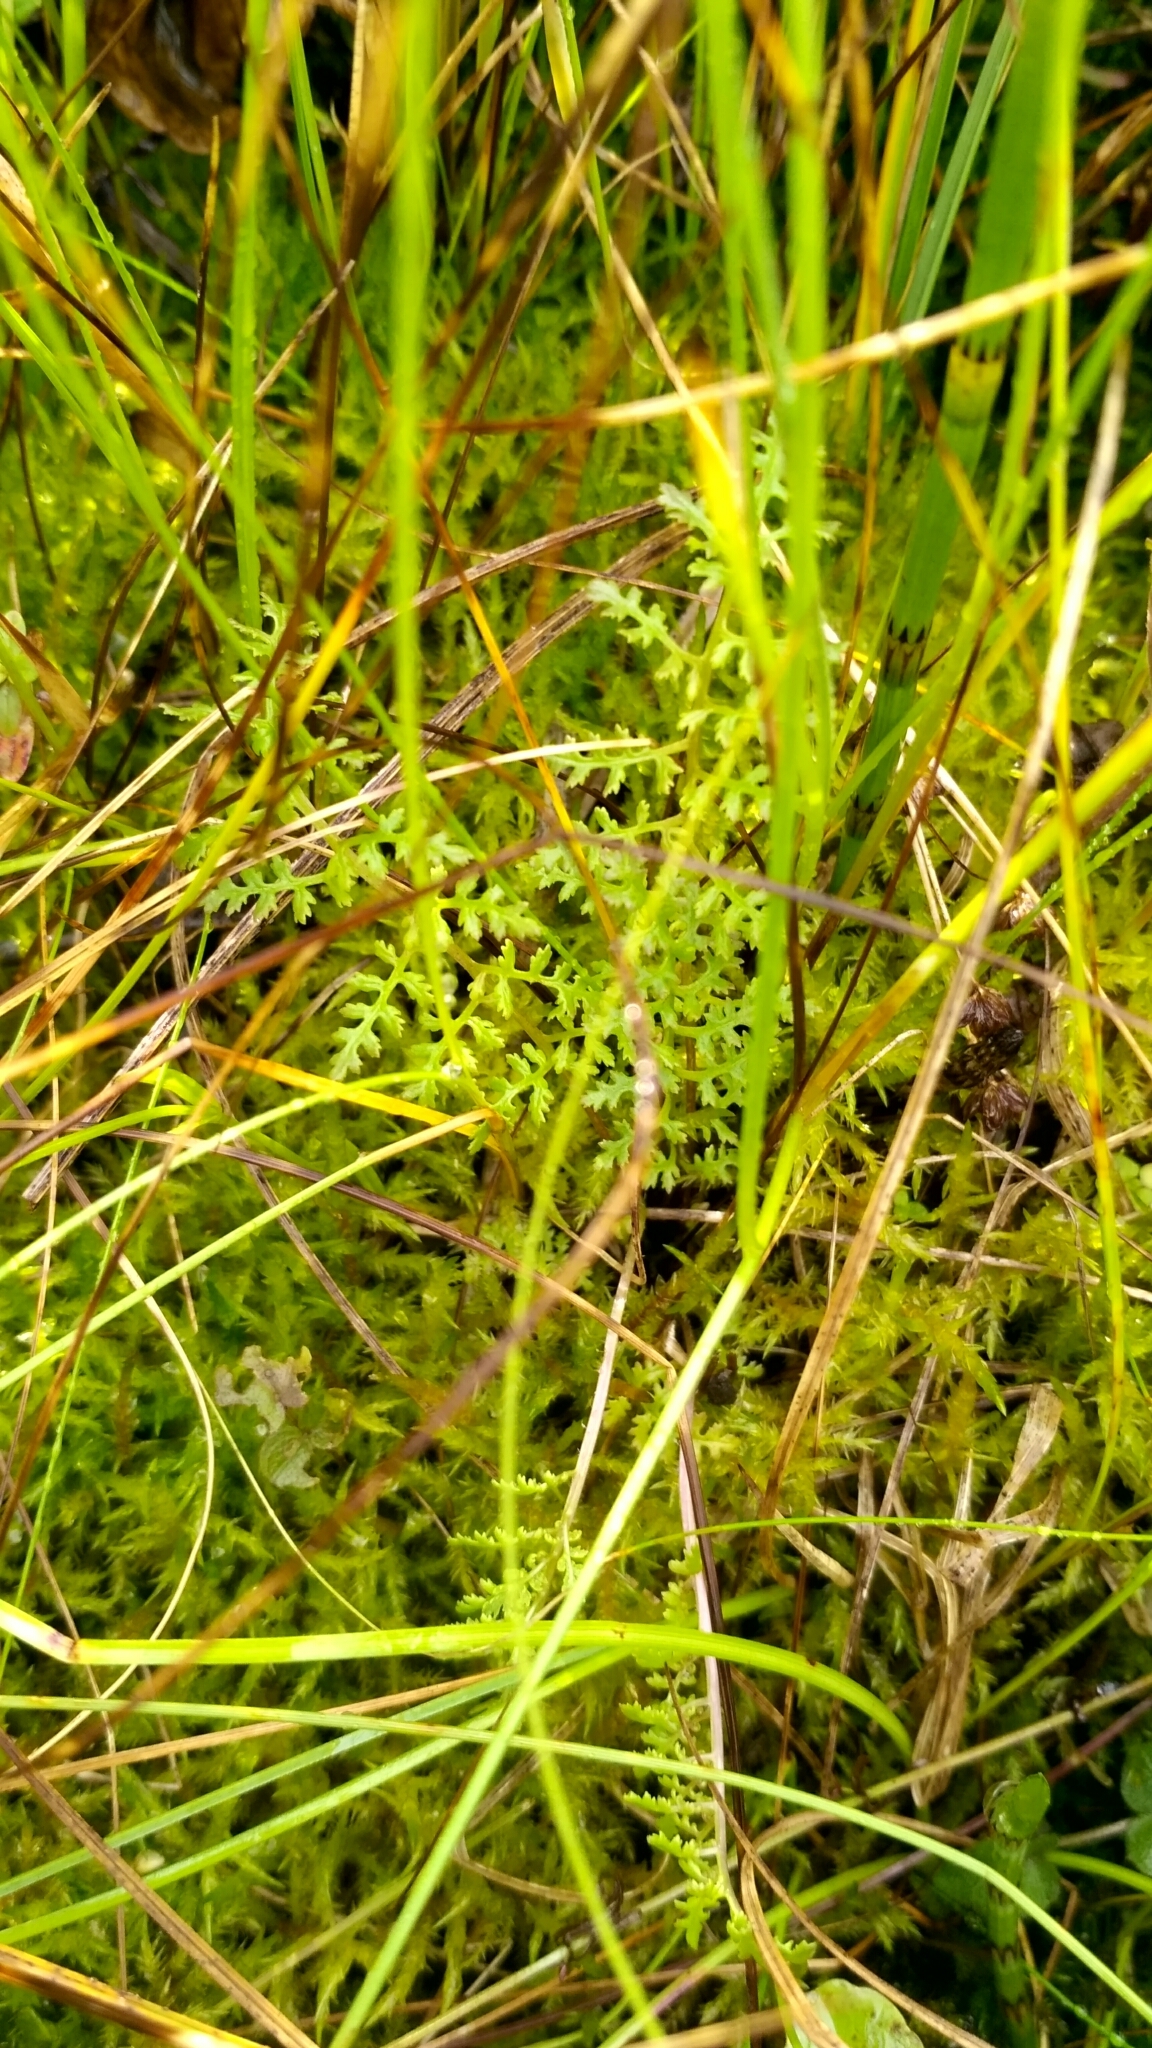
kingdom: Plantae
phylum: Tracheophyta
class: Magnoliopsida
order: Lamiales
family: Orobanchaceae
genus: Pedicularis
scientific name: Pedicularis palustris
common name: Marsh lousewort
